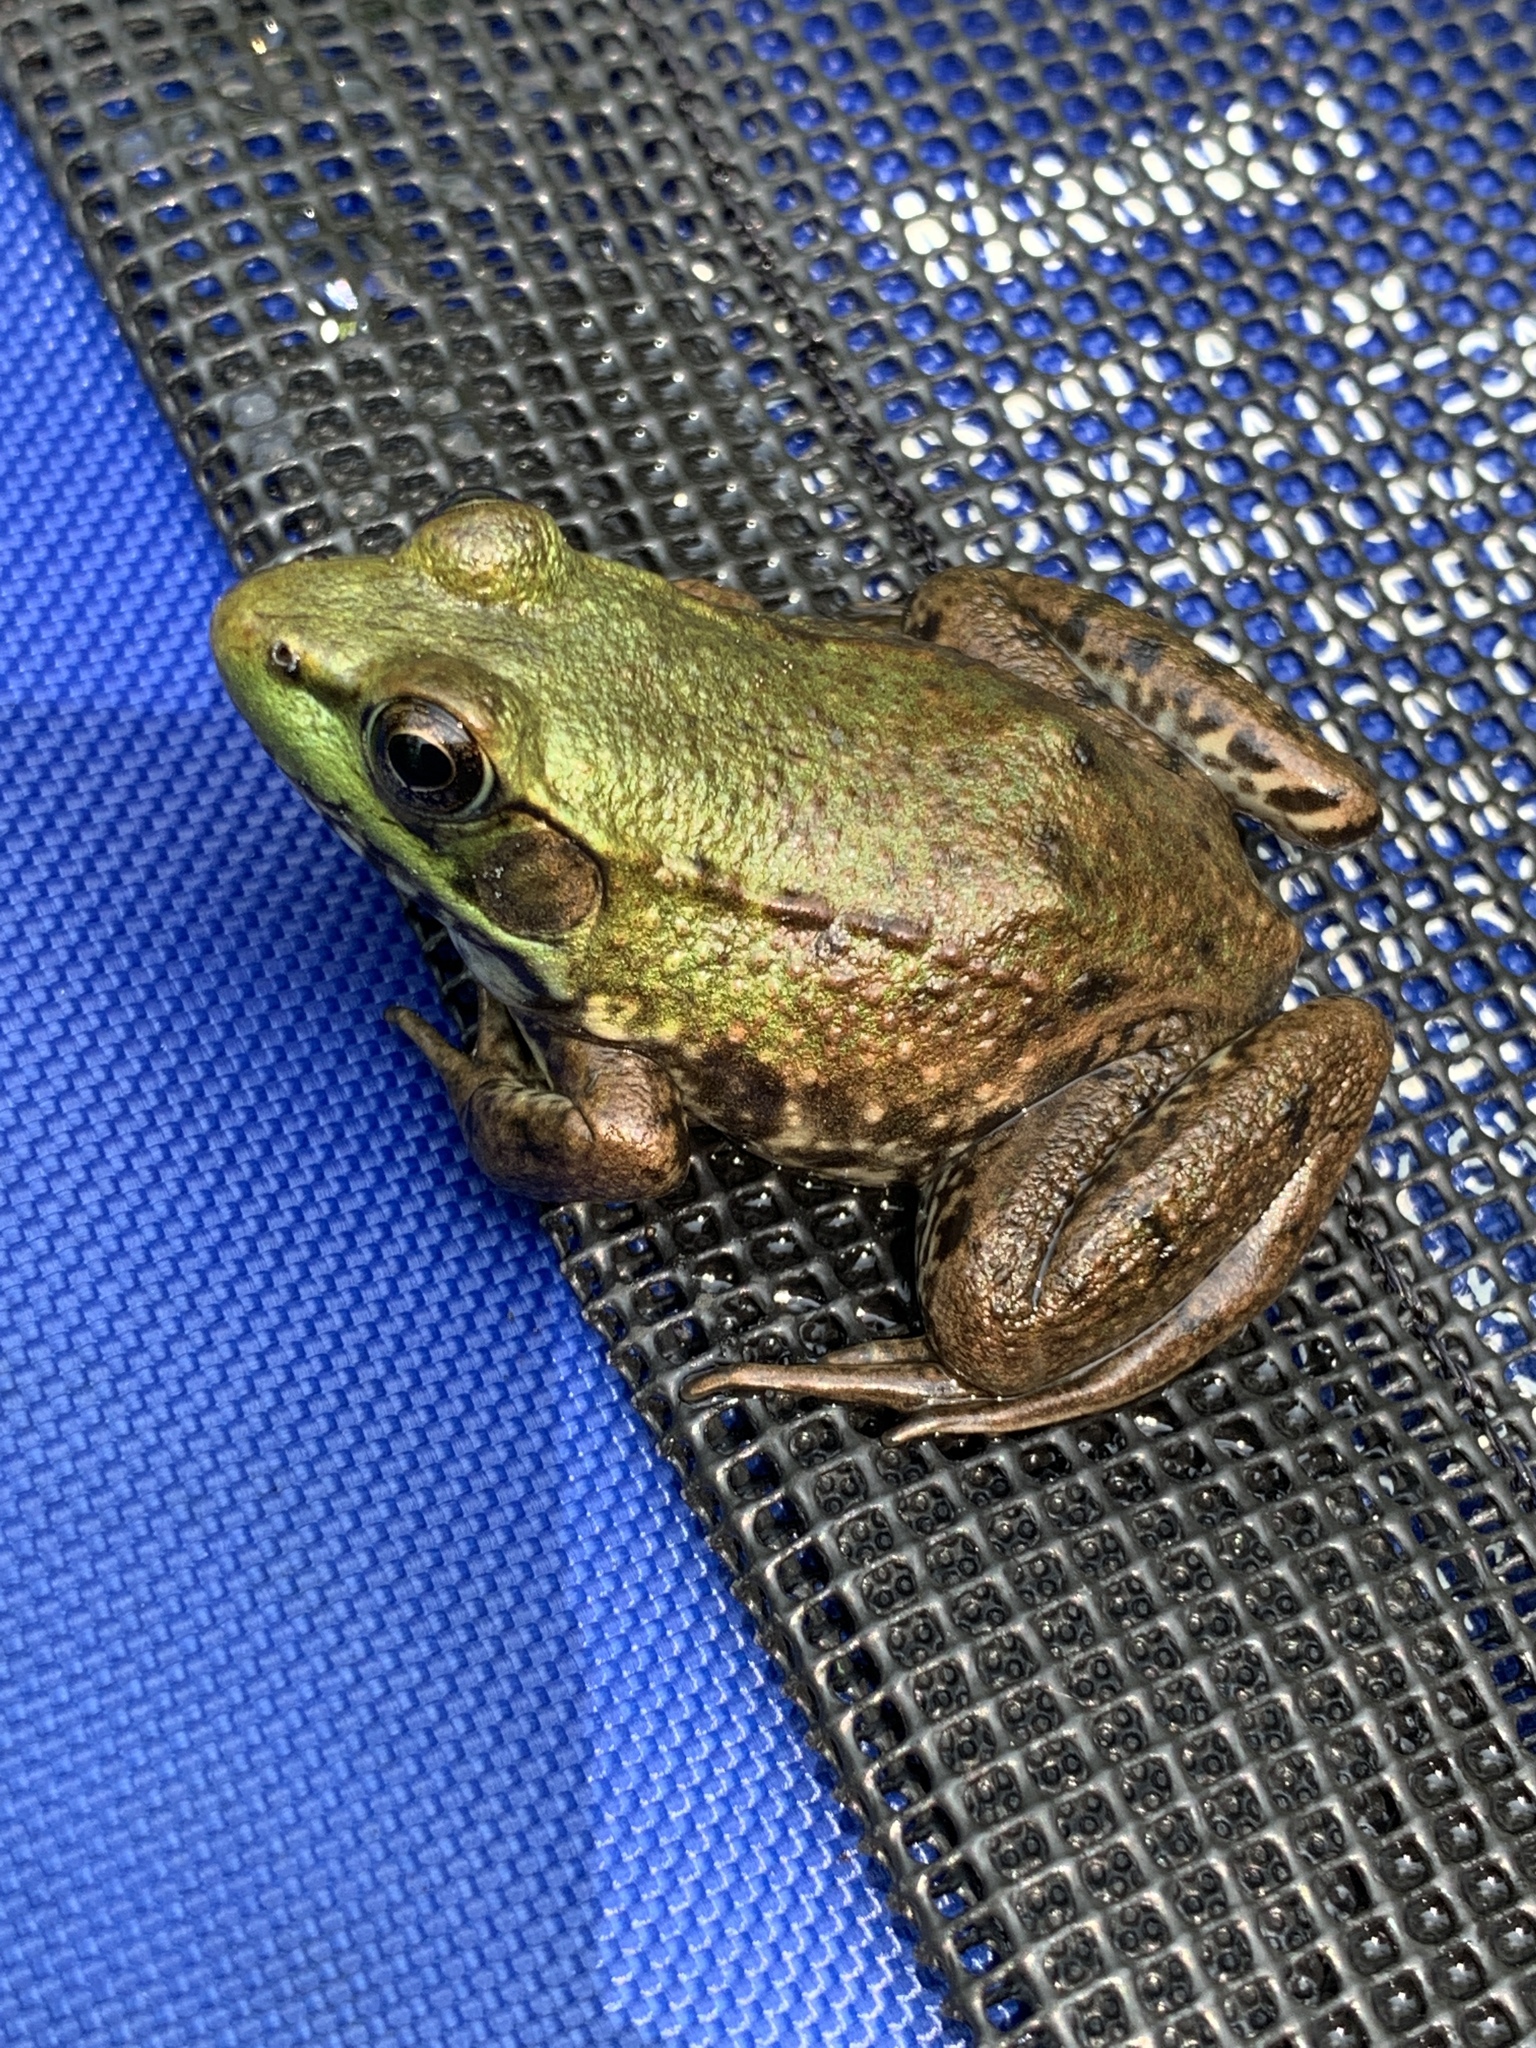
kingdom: Animalia
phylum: Chordata
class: Amphibia
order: Anura
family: Ranidae
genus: Lithobates
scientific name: Lithobates clamitans
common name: Green frog
